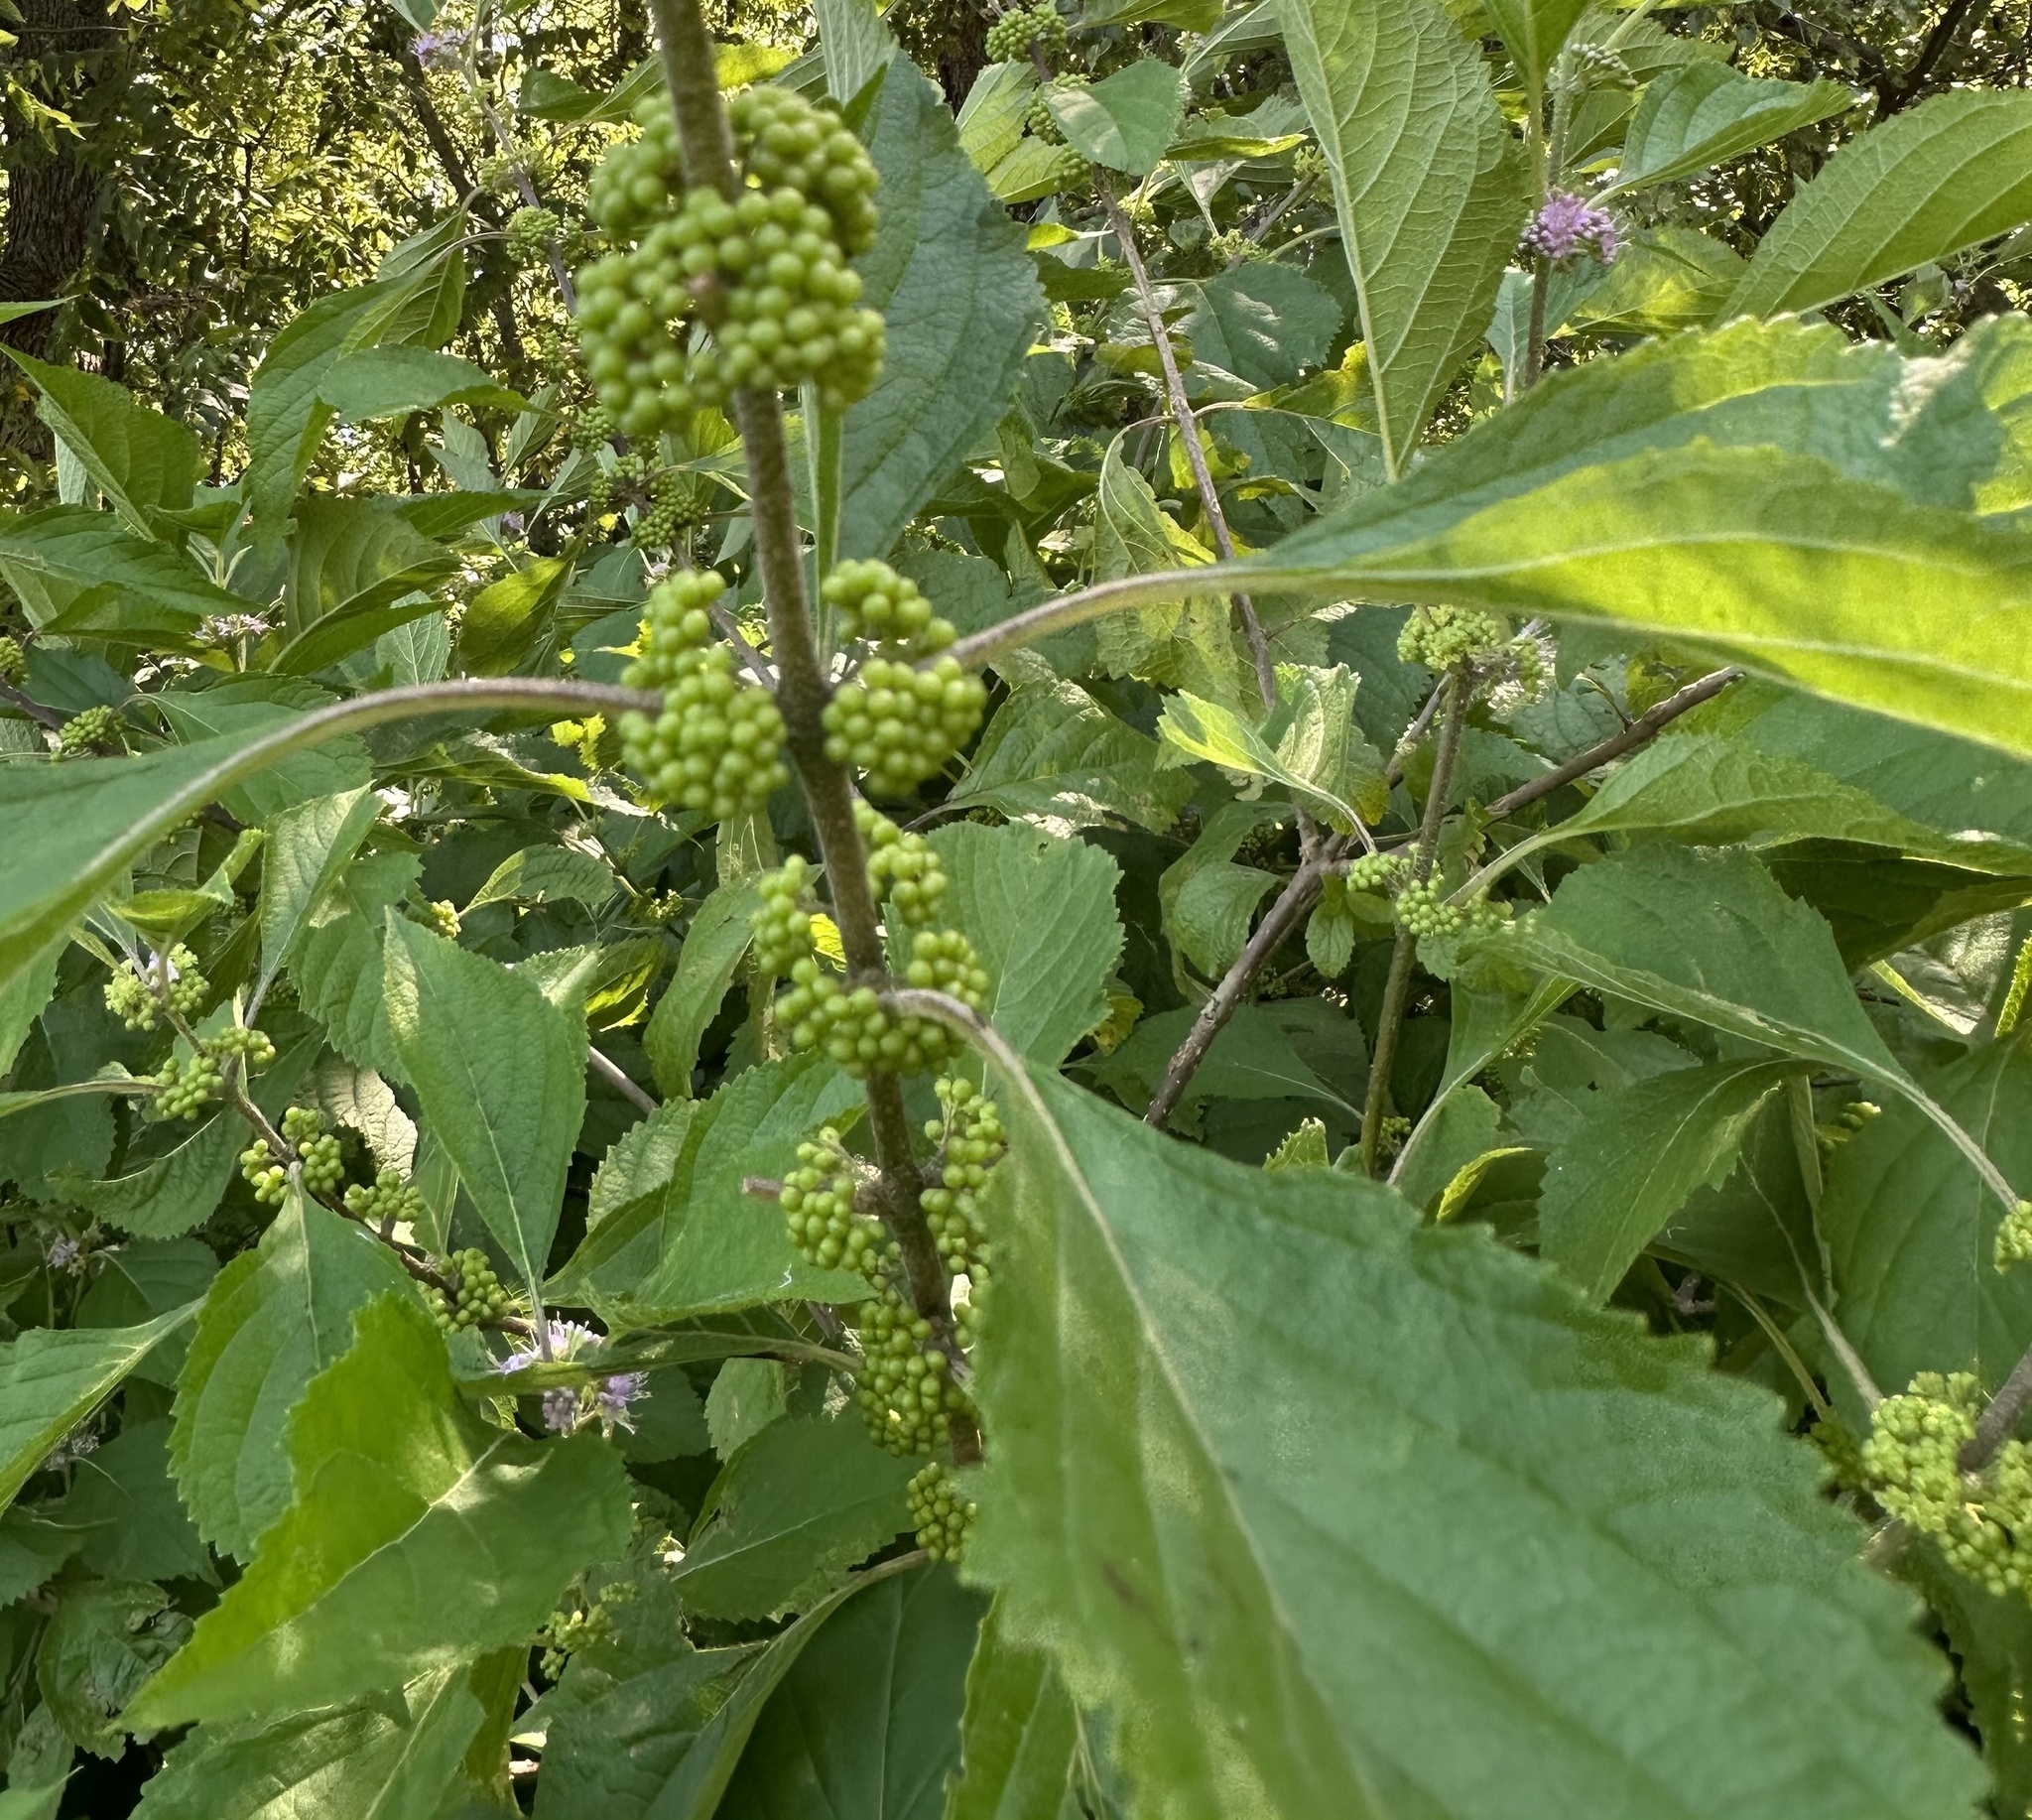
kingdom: Plantae
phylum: Tracheophyta
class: Magnoliopsida
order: Lamiales
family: Lamiaceae
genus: Callicarpa
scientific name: Callicarpa americana
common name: American beautyberry
